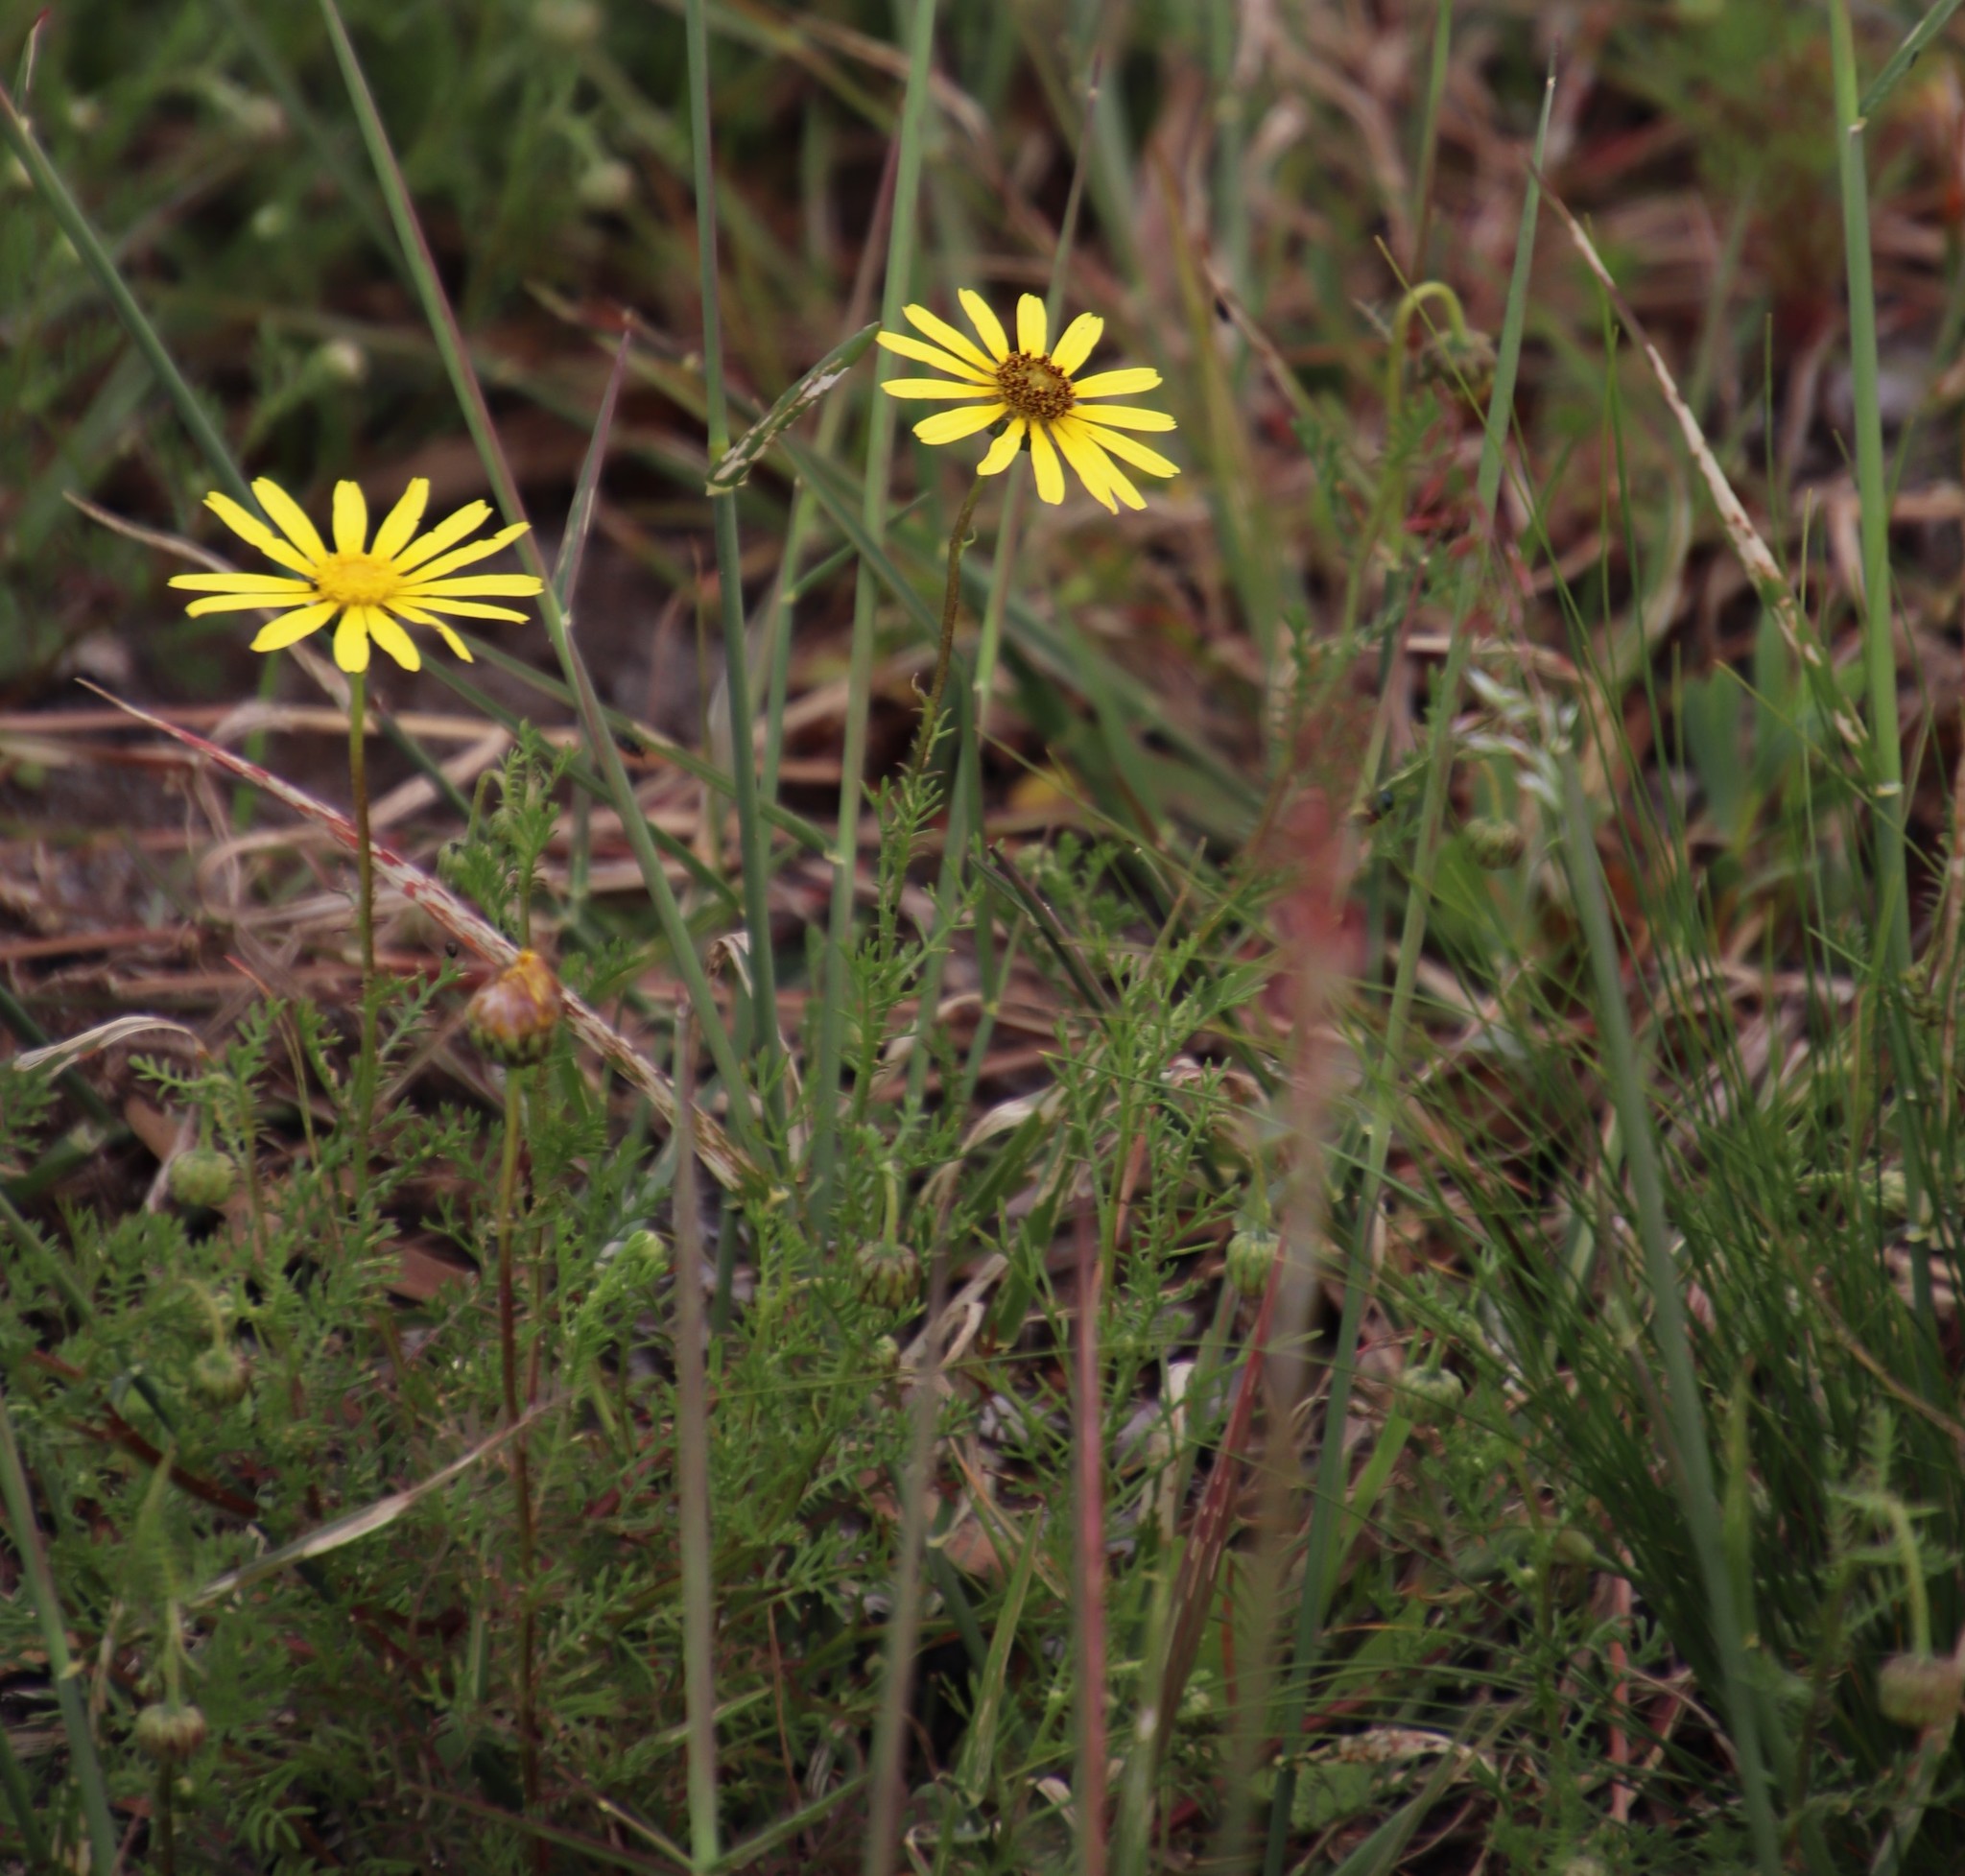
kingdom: Plantae
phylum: Tracheophyta
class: Magnoliopsida
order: Asterales
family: Asteraceae
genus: Ursinia
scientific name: Ursinia anthemoides
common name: Ursinia
